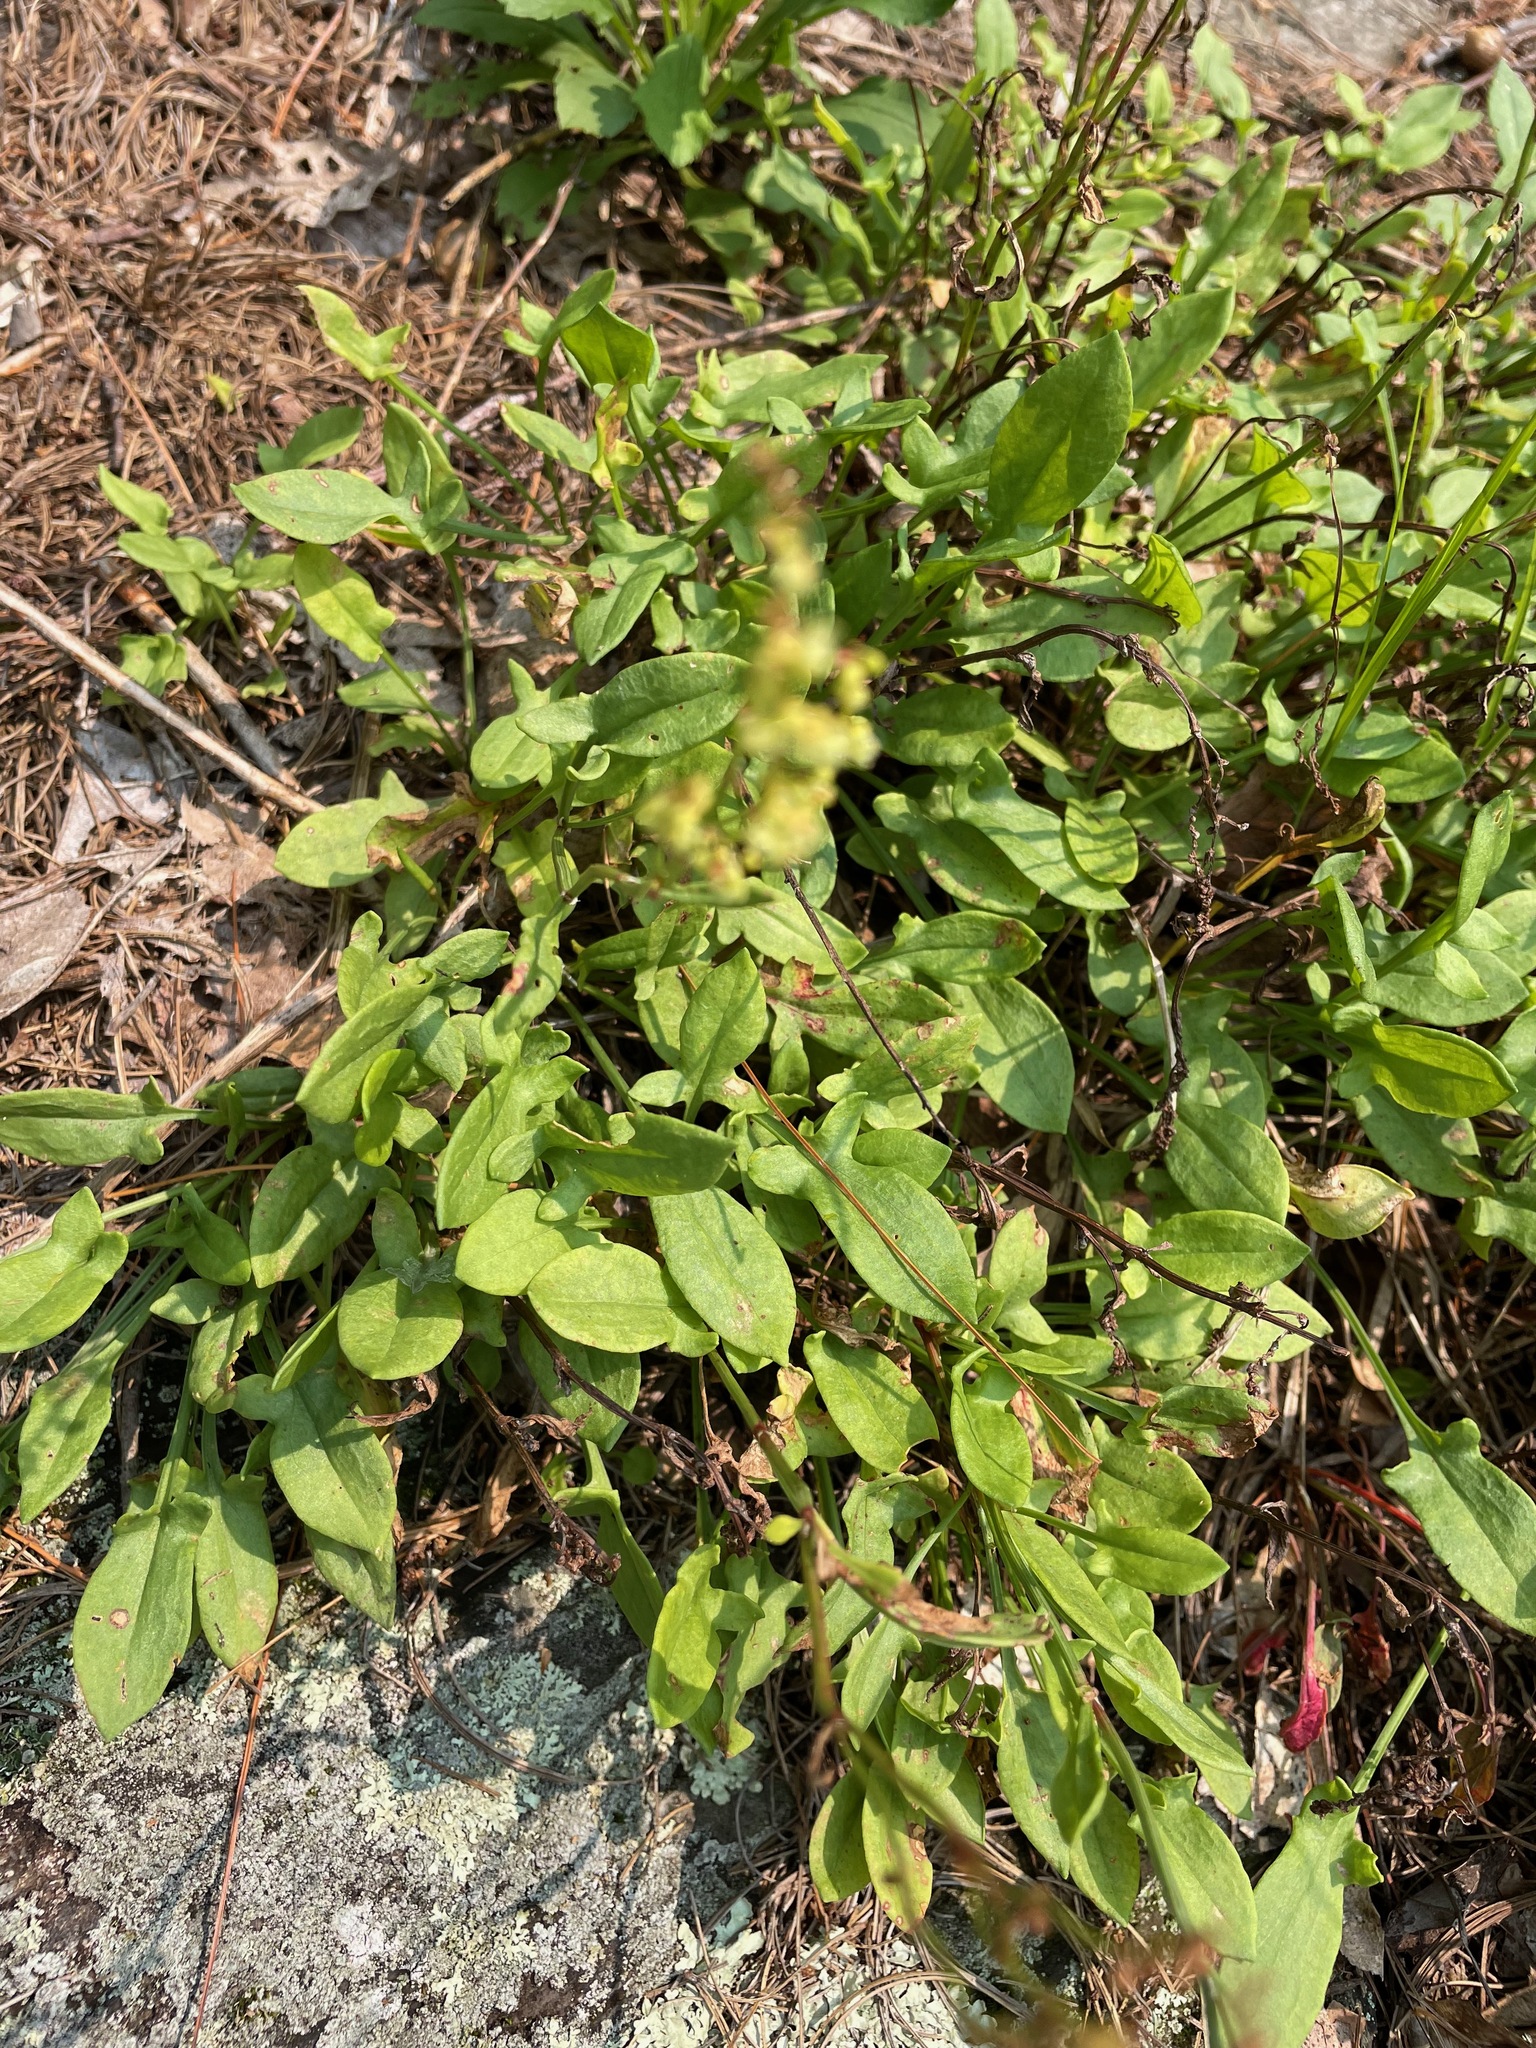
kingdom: Plantae
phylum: Tracheophyta
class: Magnoliopsida
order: Caryophyllales
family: Polygonaceae
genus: Rumex
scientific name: Rumex acetosella
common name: Common sheep sorrel
